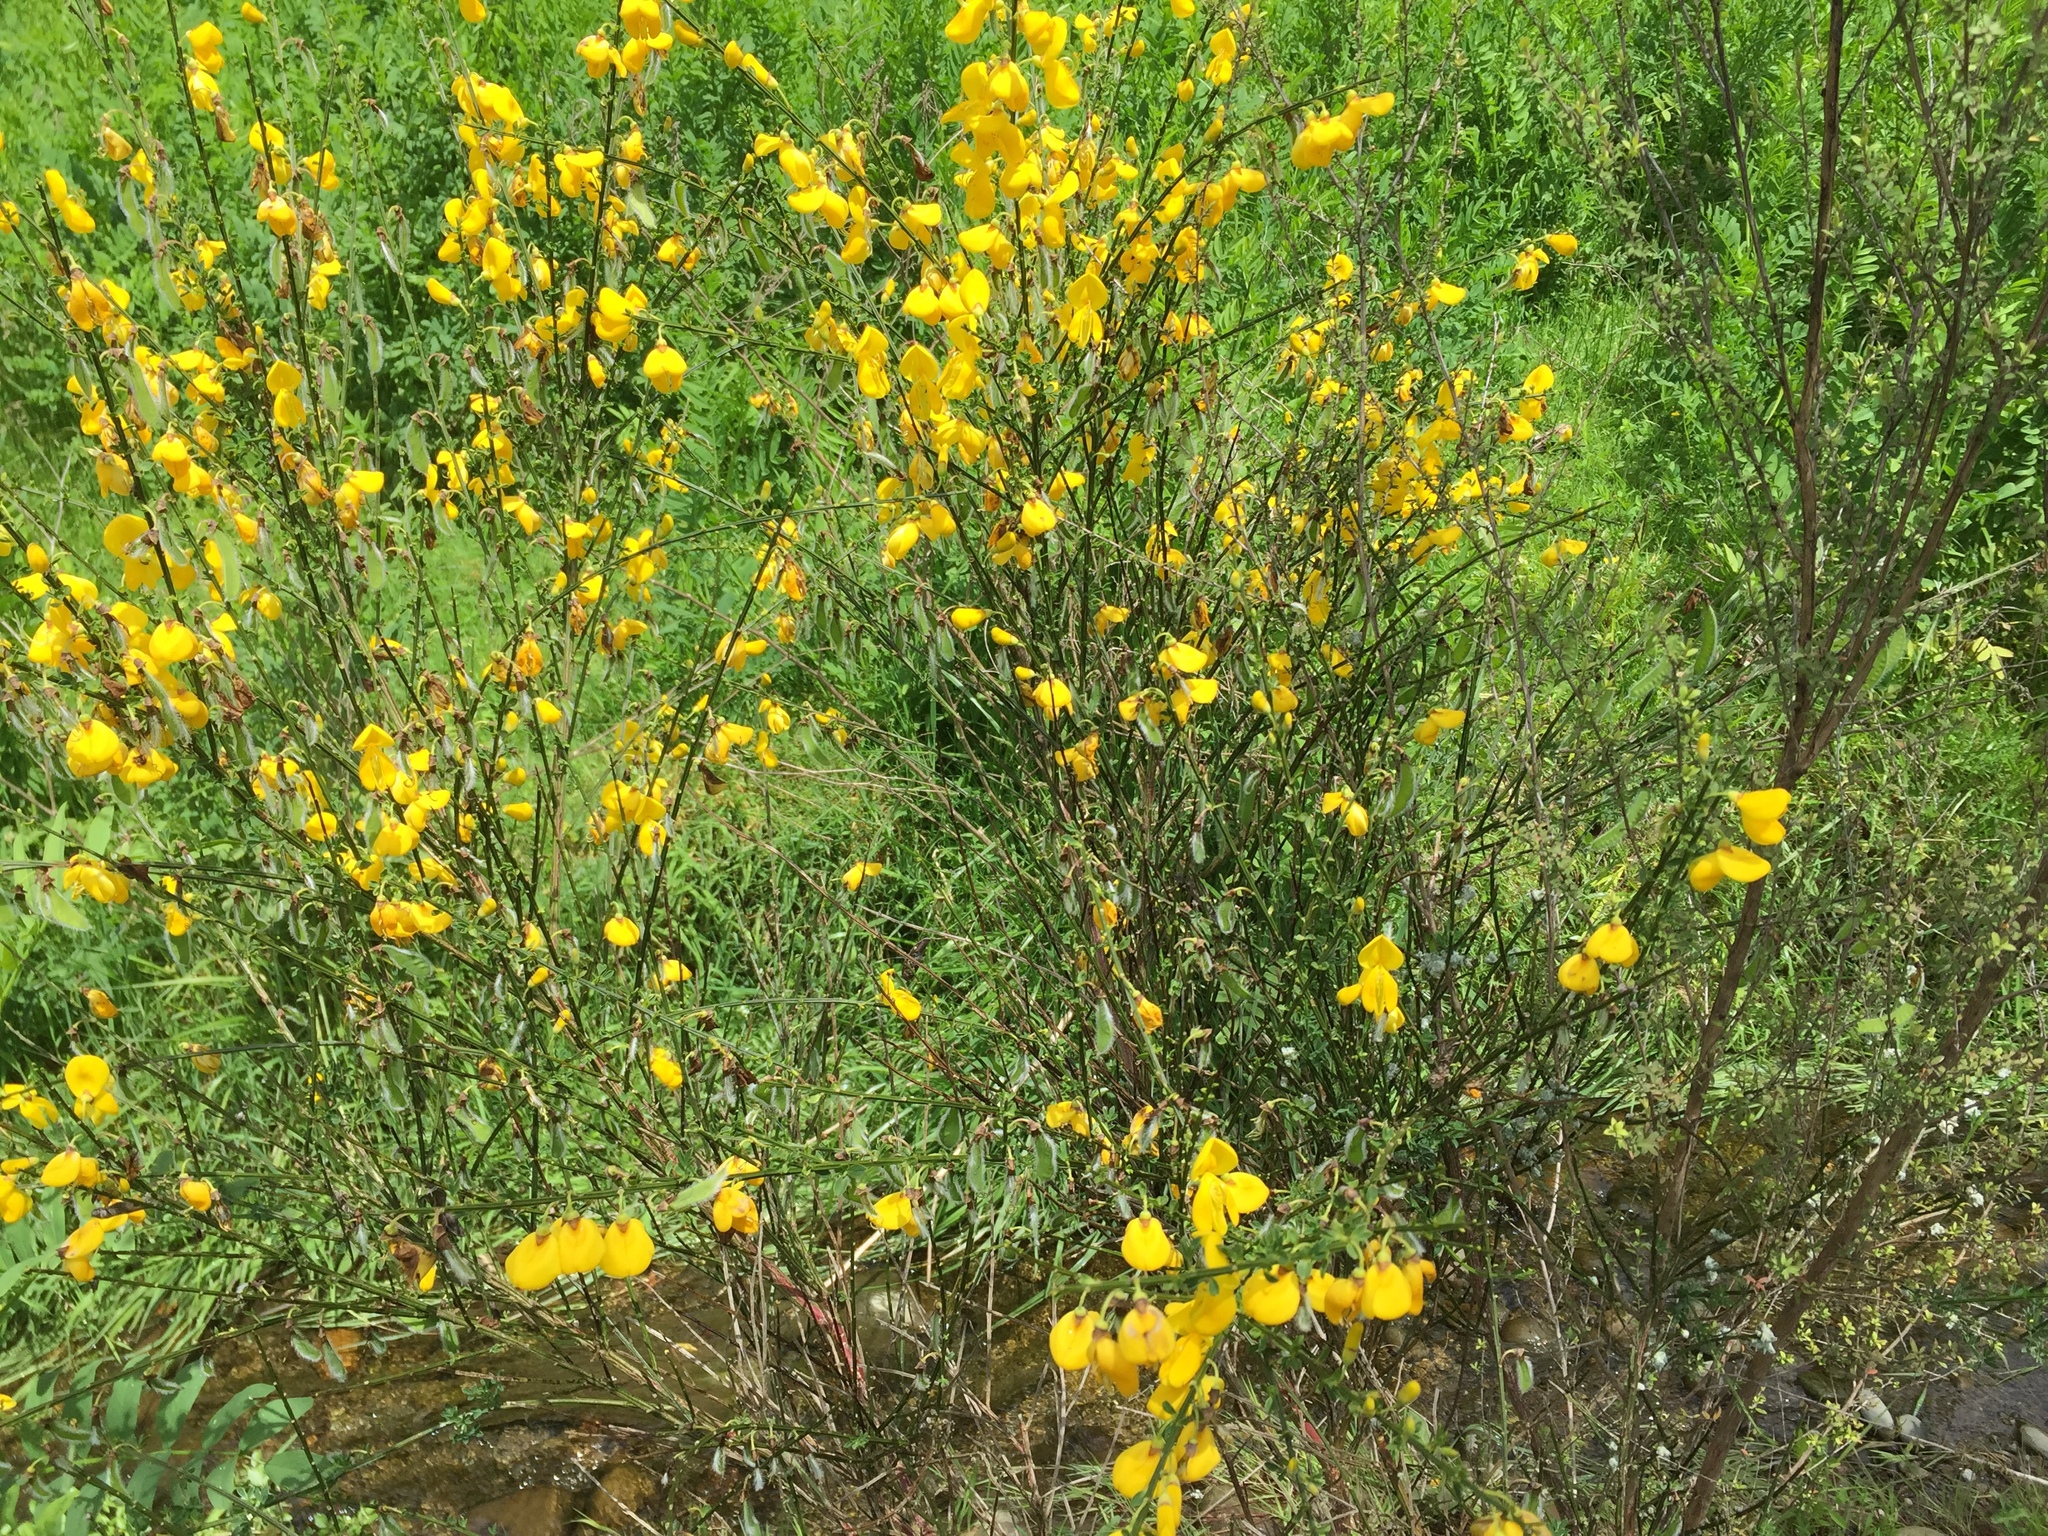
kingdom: Plantae
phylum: Tracheophyta
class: Magnoliopsida
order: Fabales
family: Fabaceae
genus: Cytisus
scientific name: Cytisus scoparius
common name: Scotch broom
